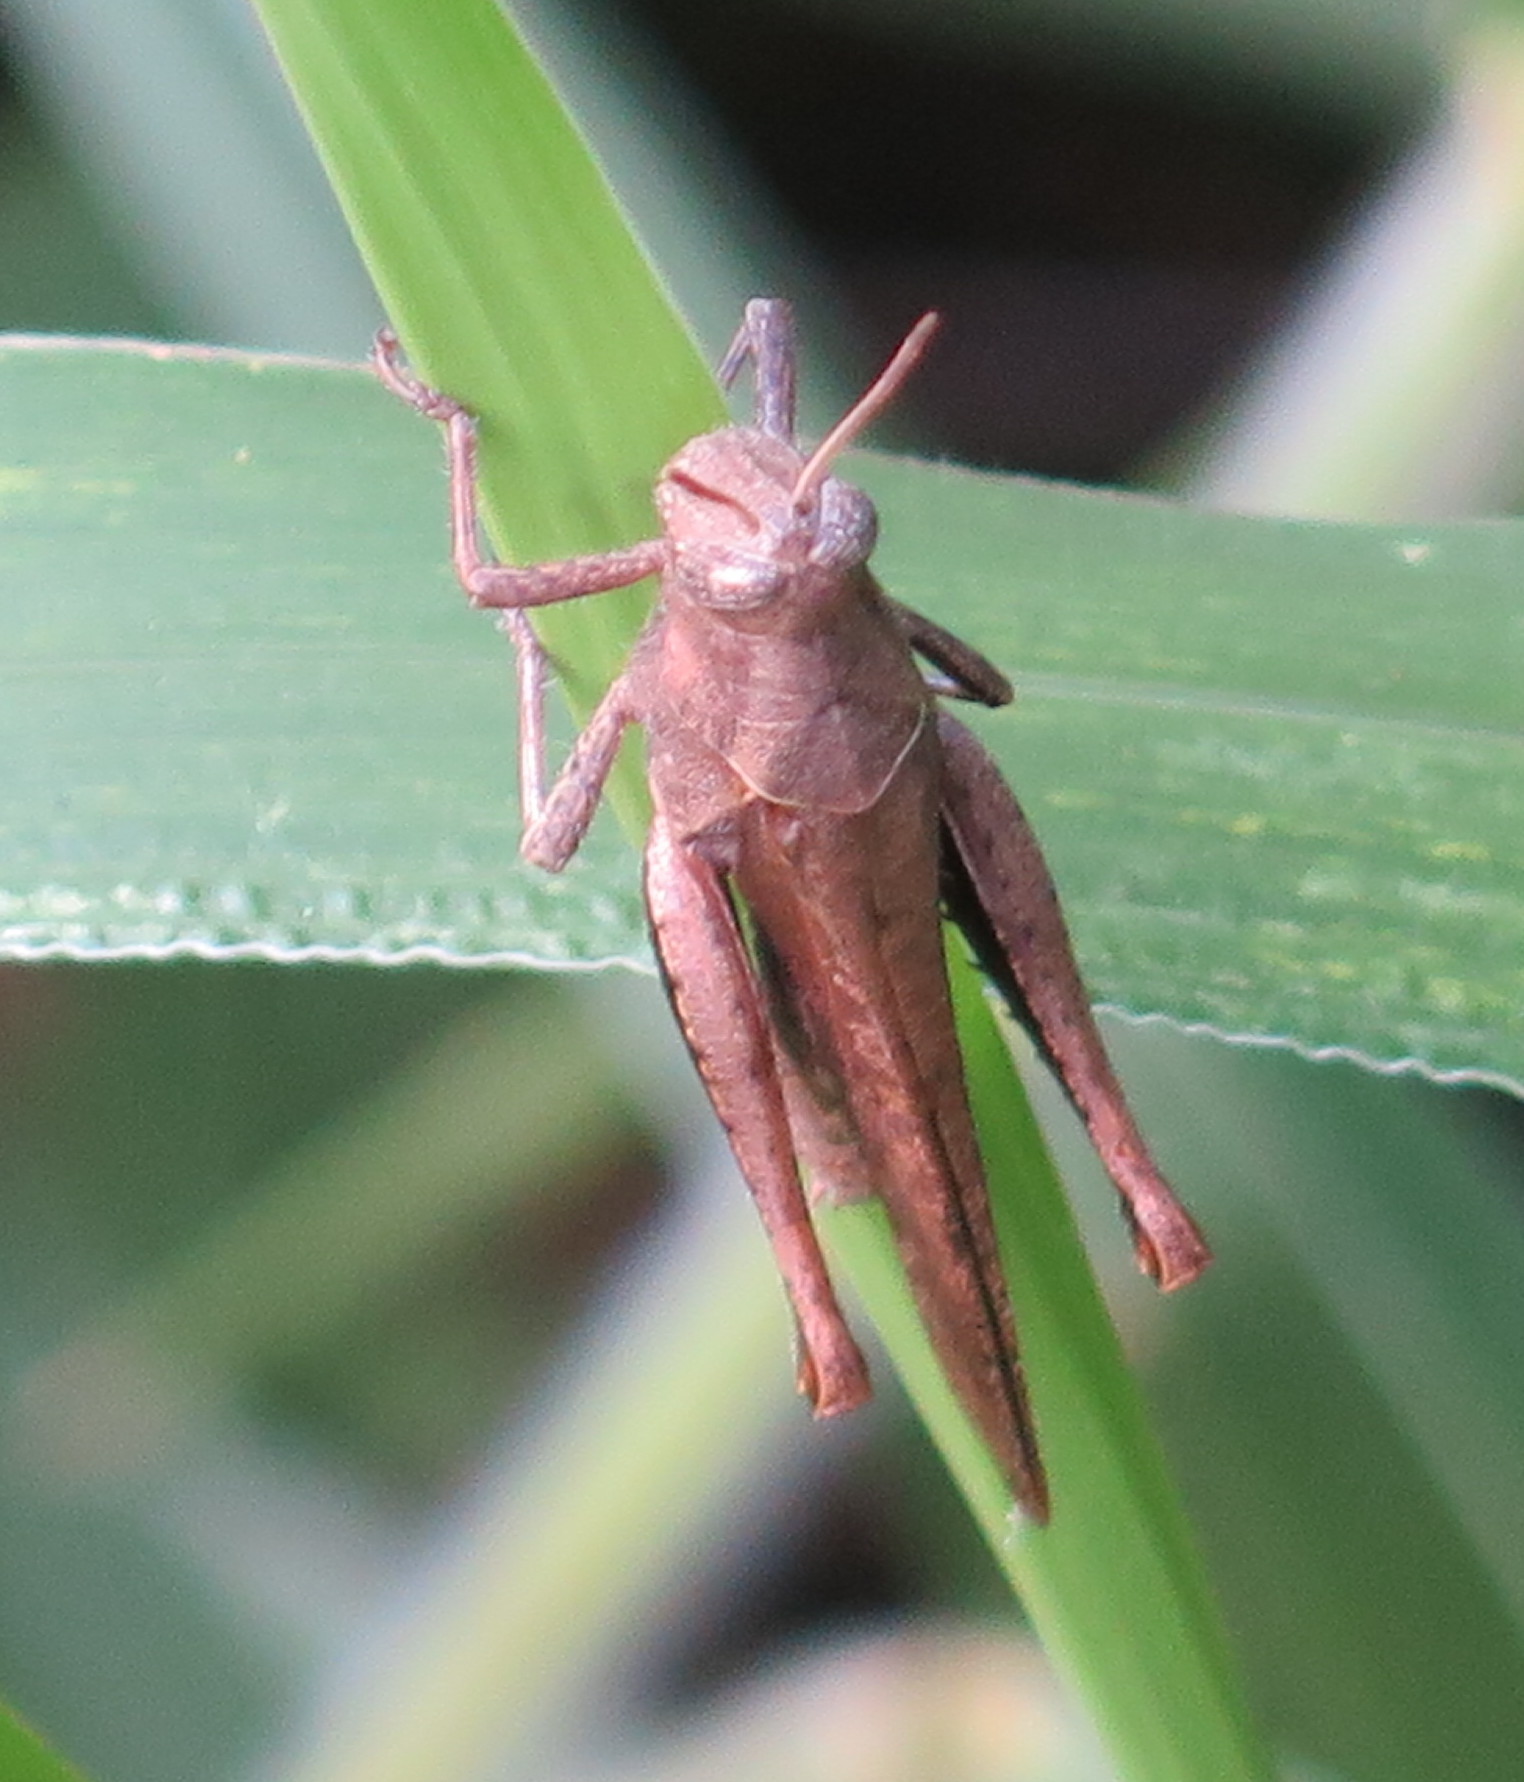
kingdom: Animalia
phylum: Arthropoda
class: Insecta
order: Orthoptera
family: Acrididae
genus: Abracris
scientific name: Abracris flavolineata
